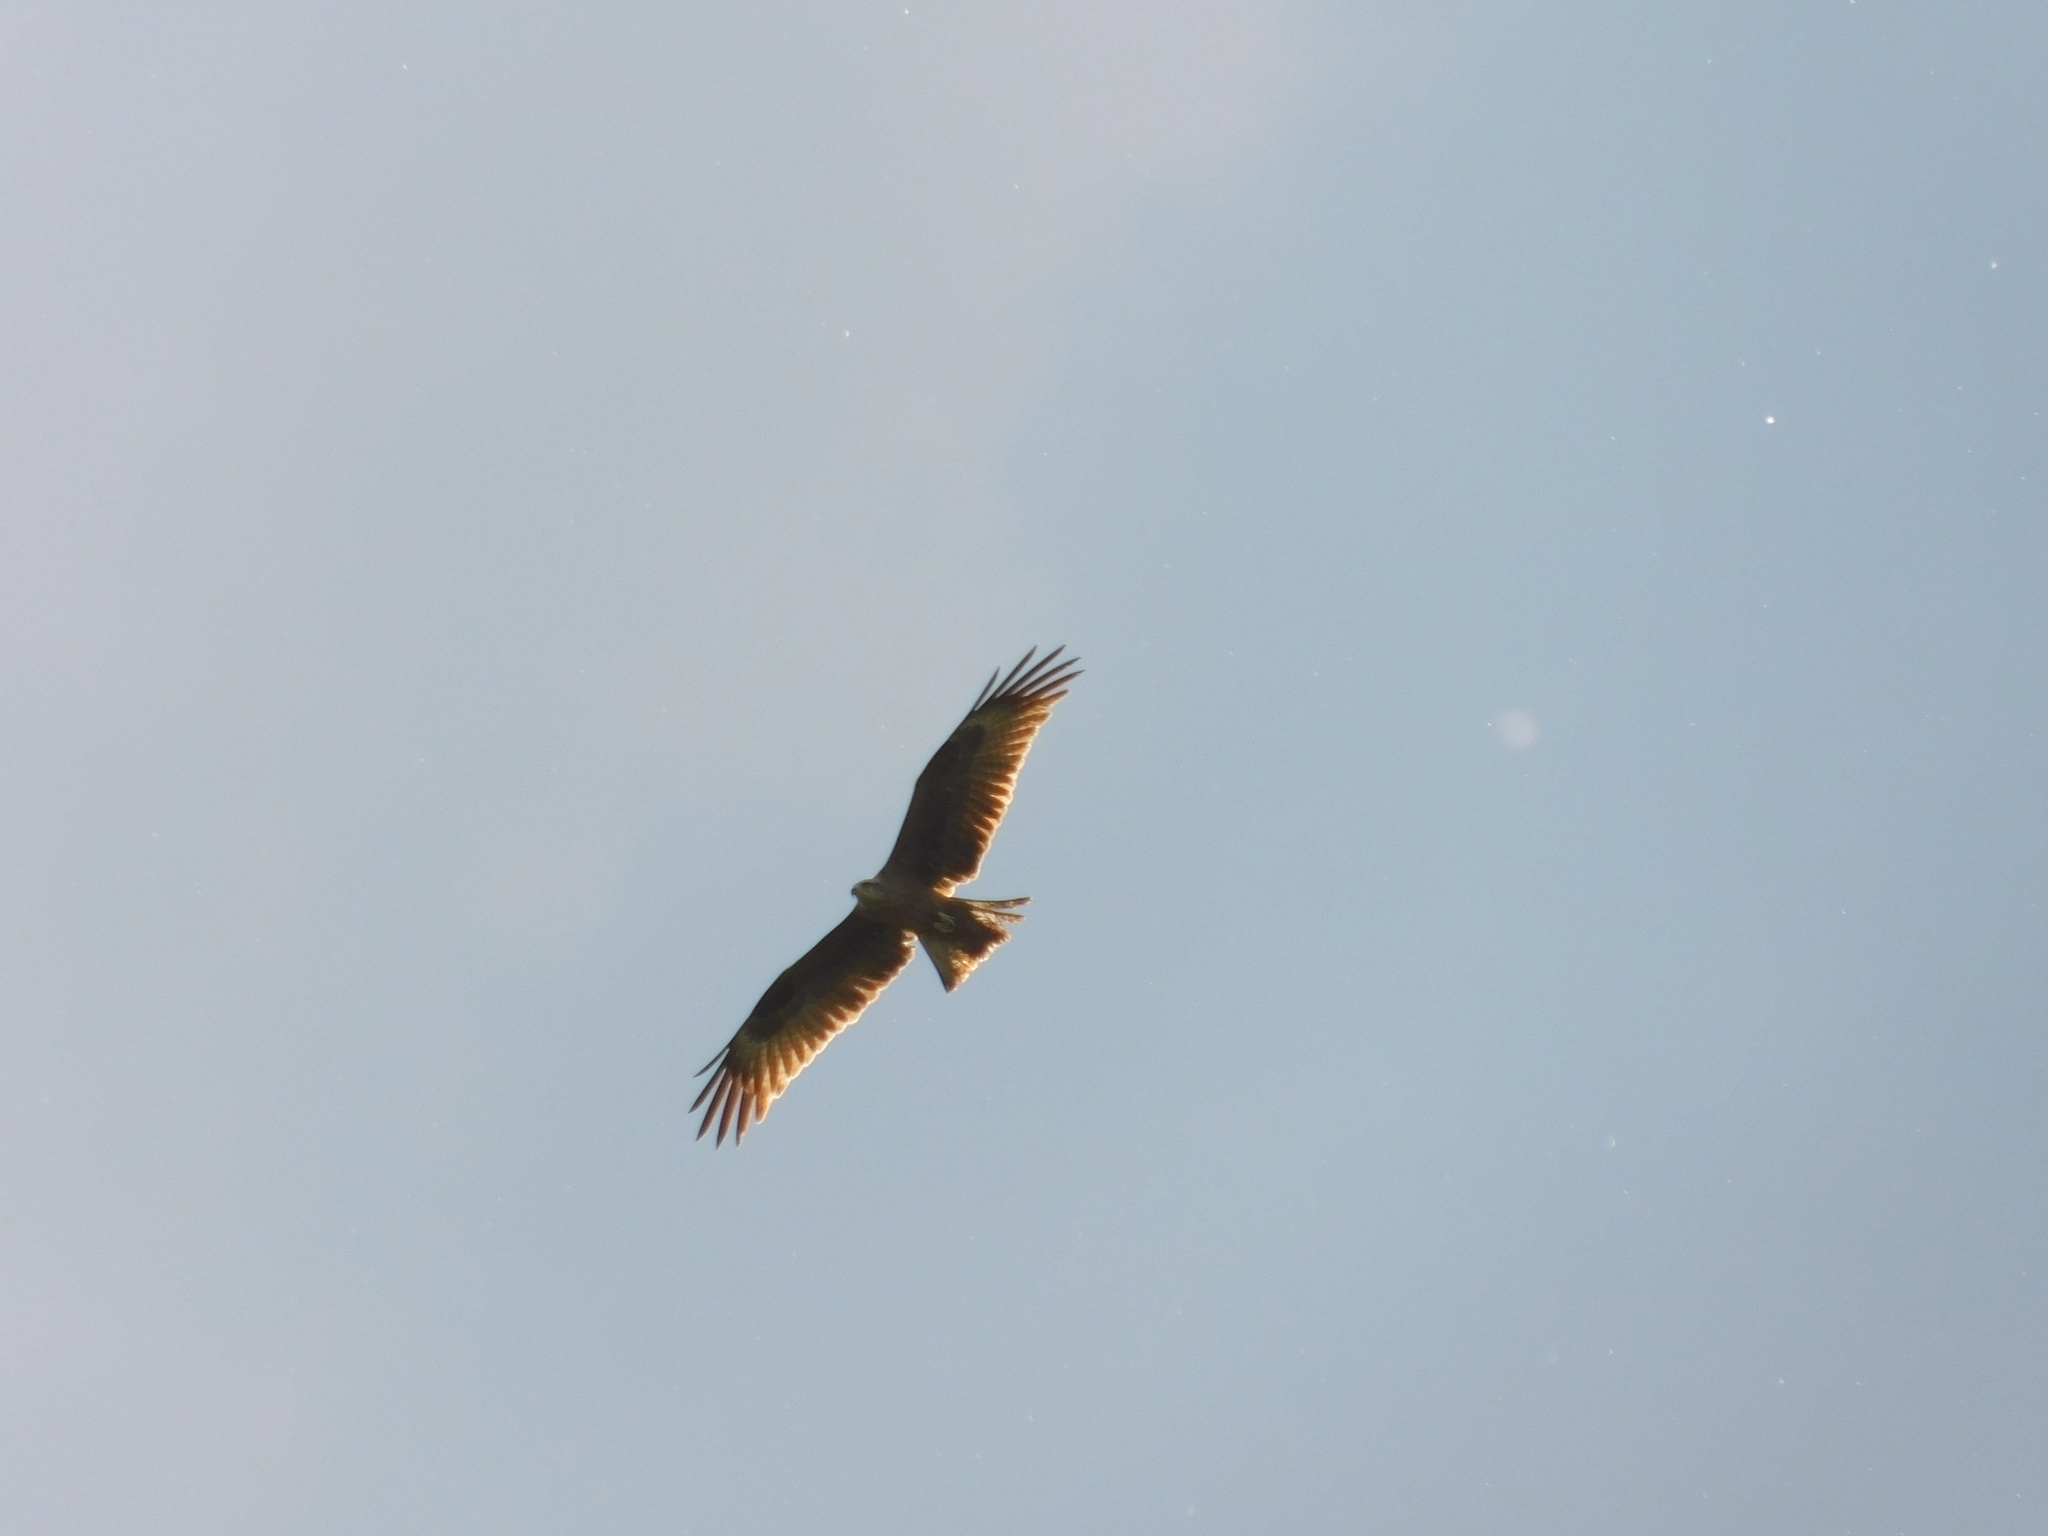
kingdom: Animalia
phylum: Chordata
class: Aves
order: Accipitriformes
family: Accipitridae
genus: Milvus
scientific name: Milvus migrans
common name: Black kite
